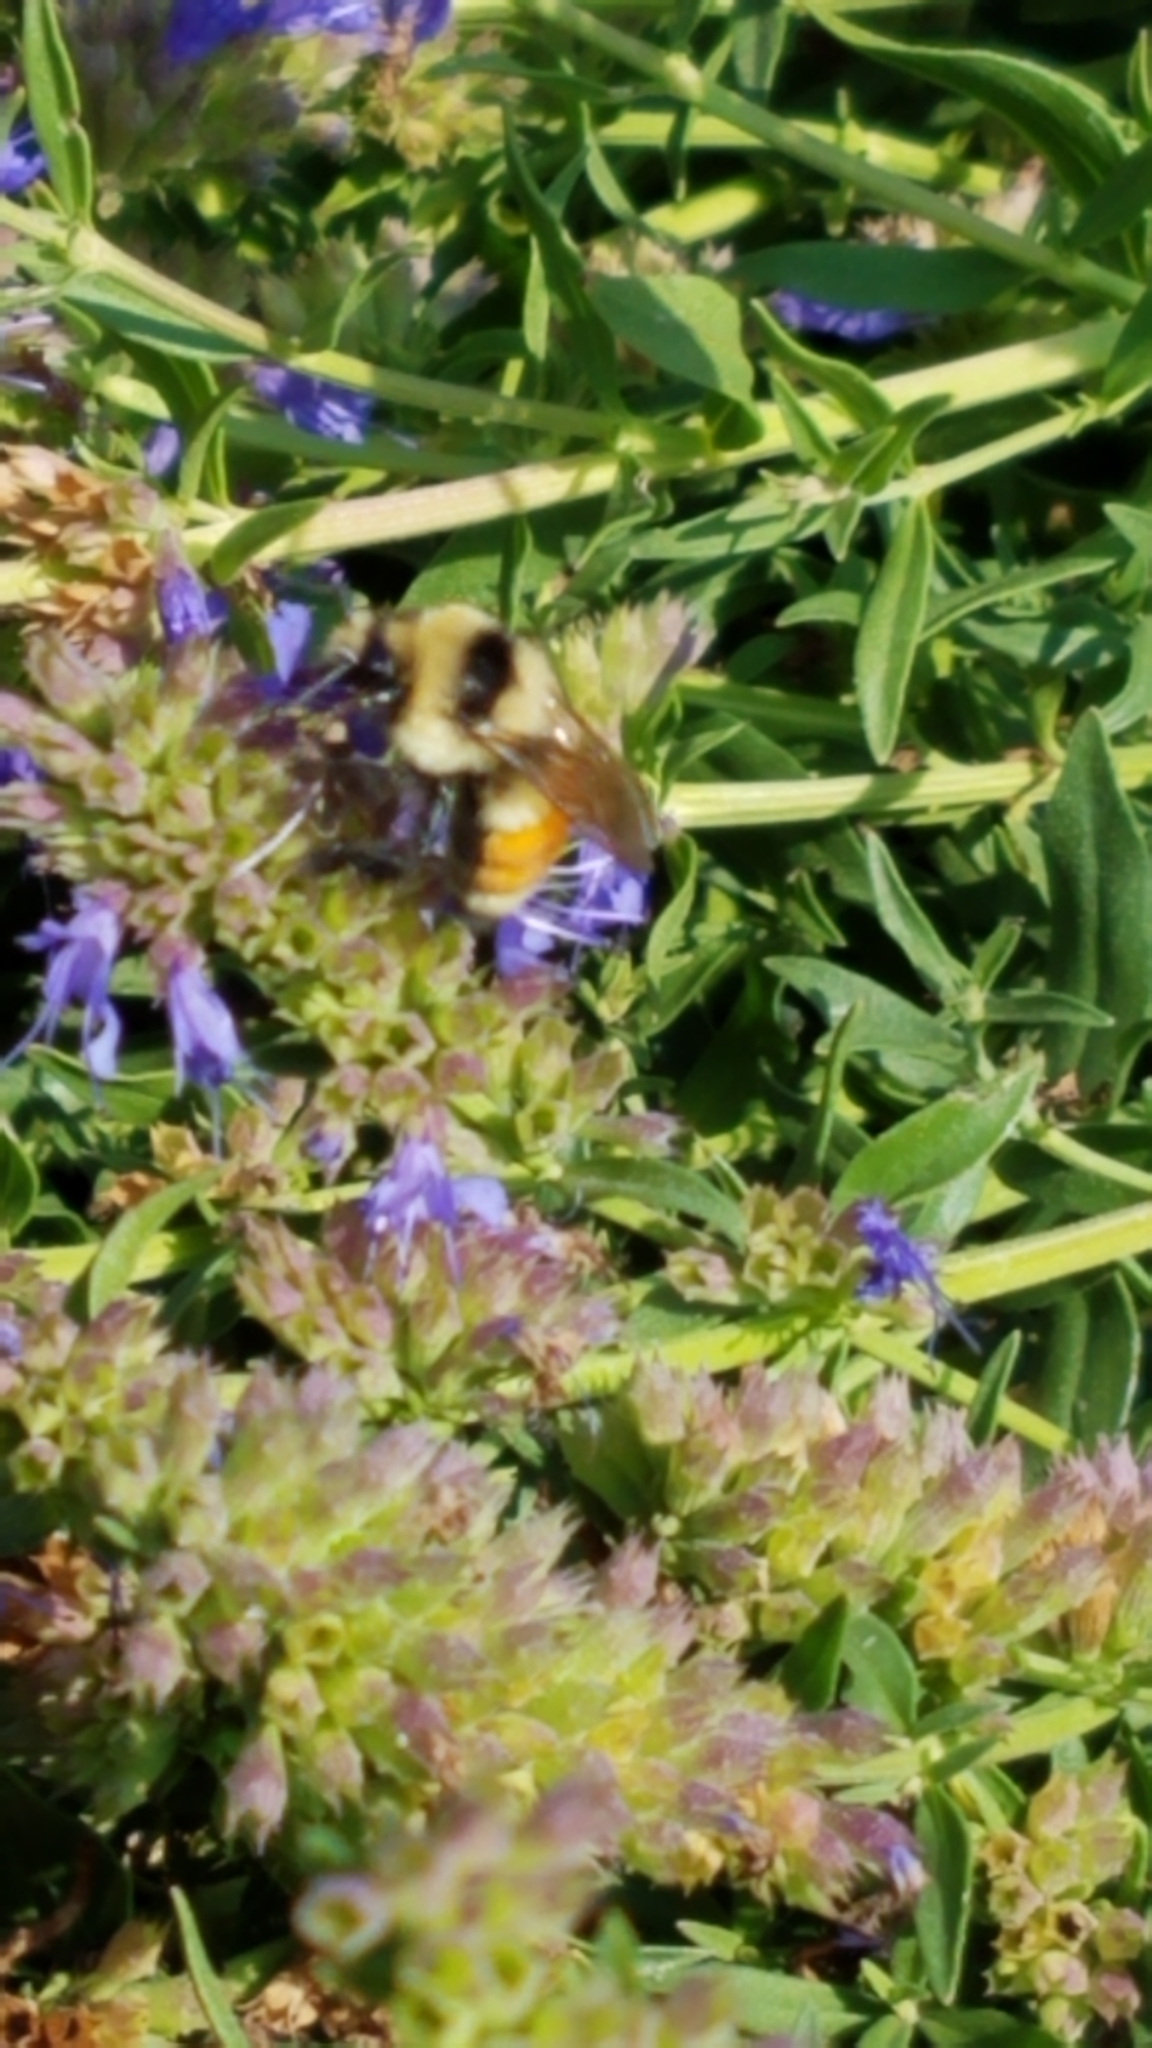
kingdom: Animalia
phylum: Arthropoda
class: Insecta
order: Hymenoptera
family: Apidae
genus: Bombus
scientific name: Bombus huntii
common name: Hunt bumble bee
